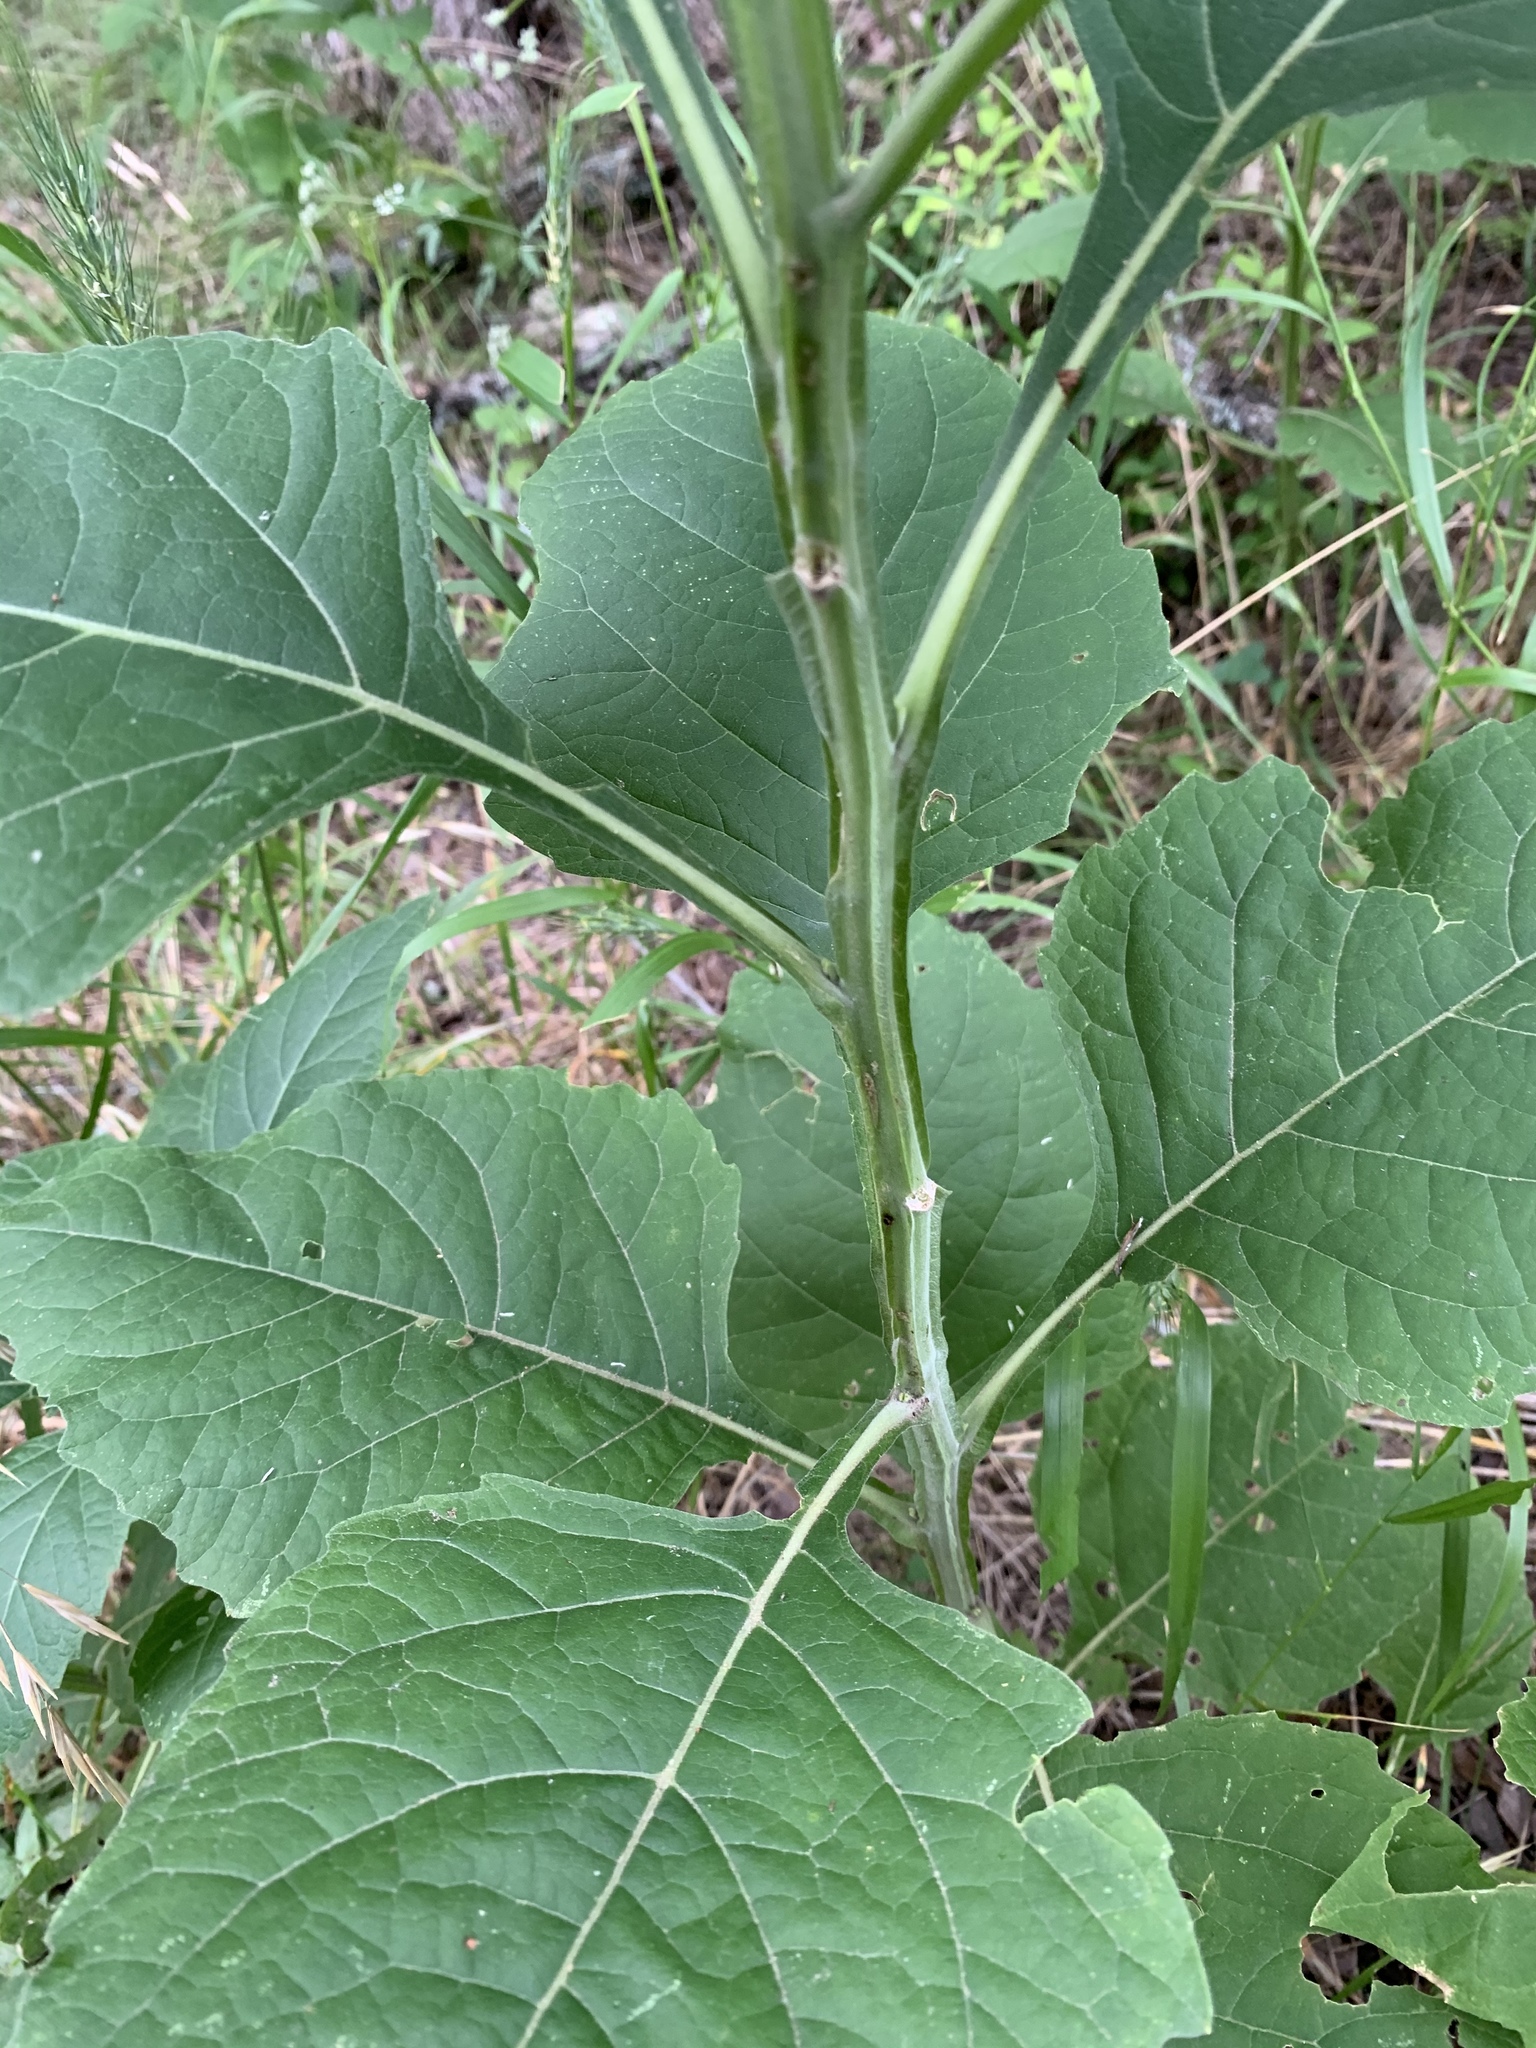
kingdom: Plantae
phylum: Tracheophyta
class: Magnoliopsida
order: Asterales
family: Asteraceae
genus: Verbesina
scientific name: Verbesina virginica
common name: Frostweed
